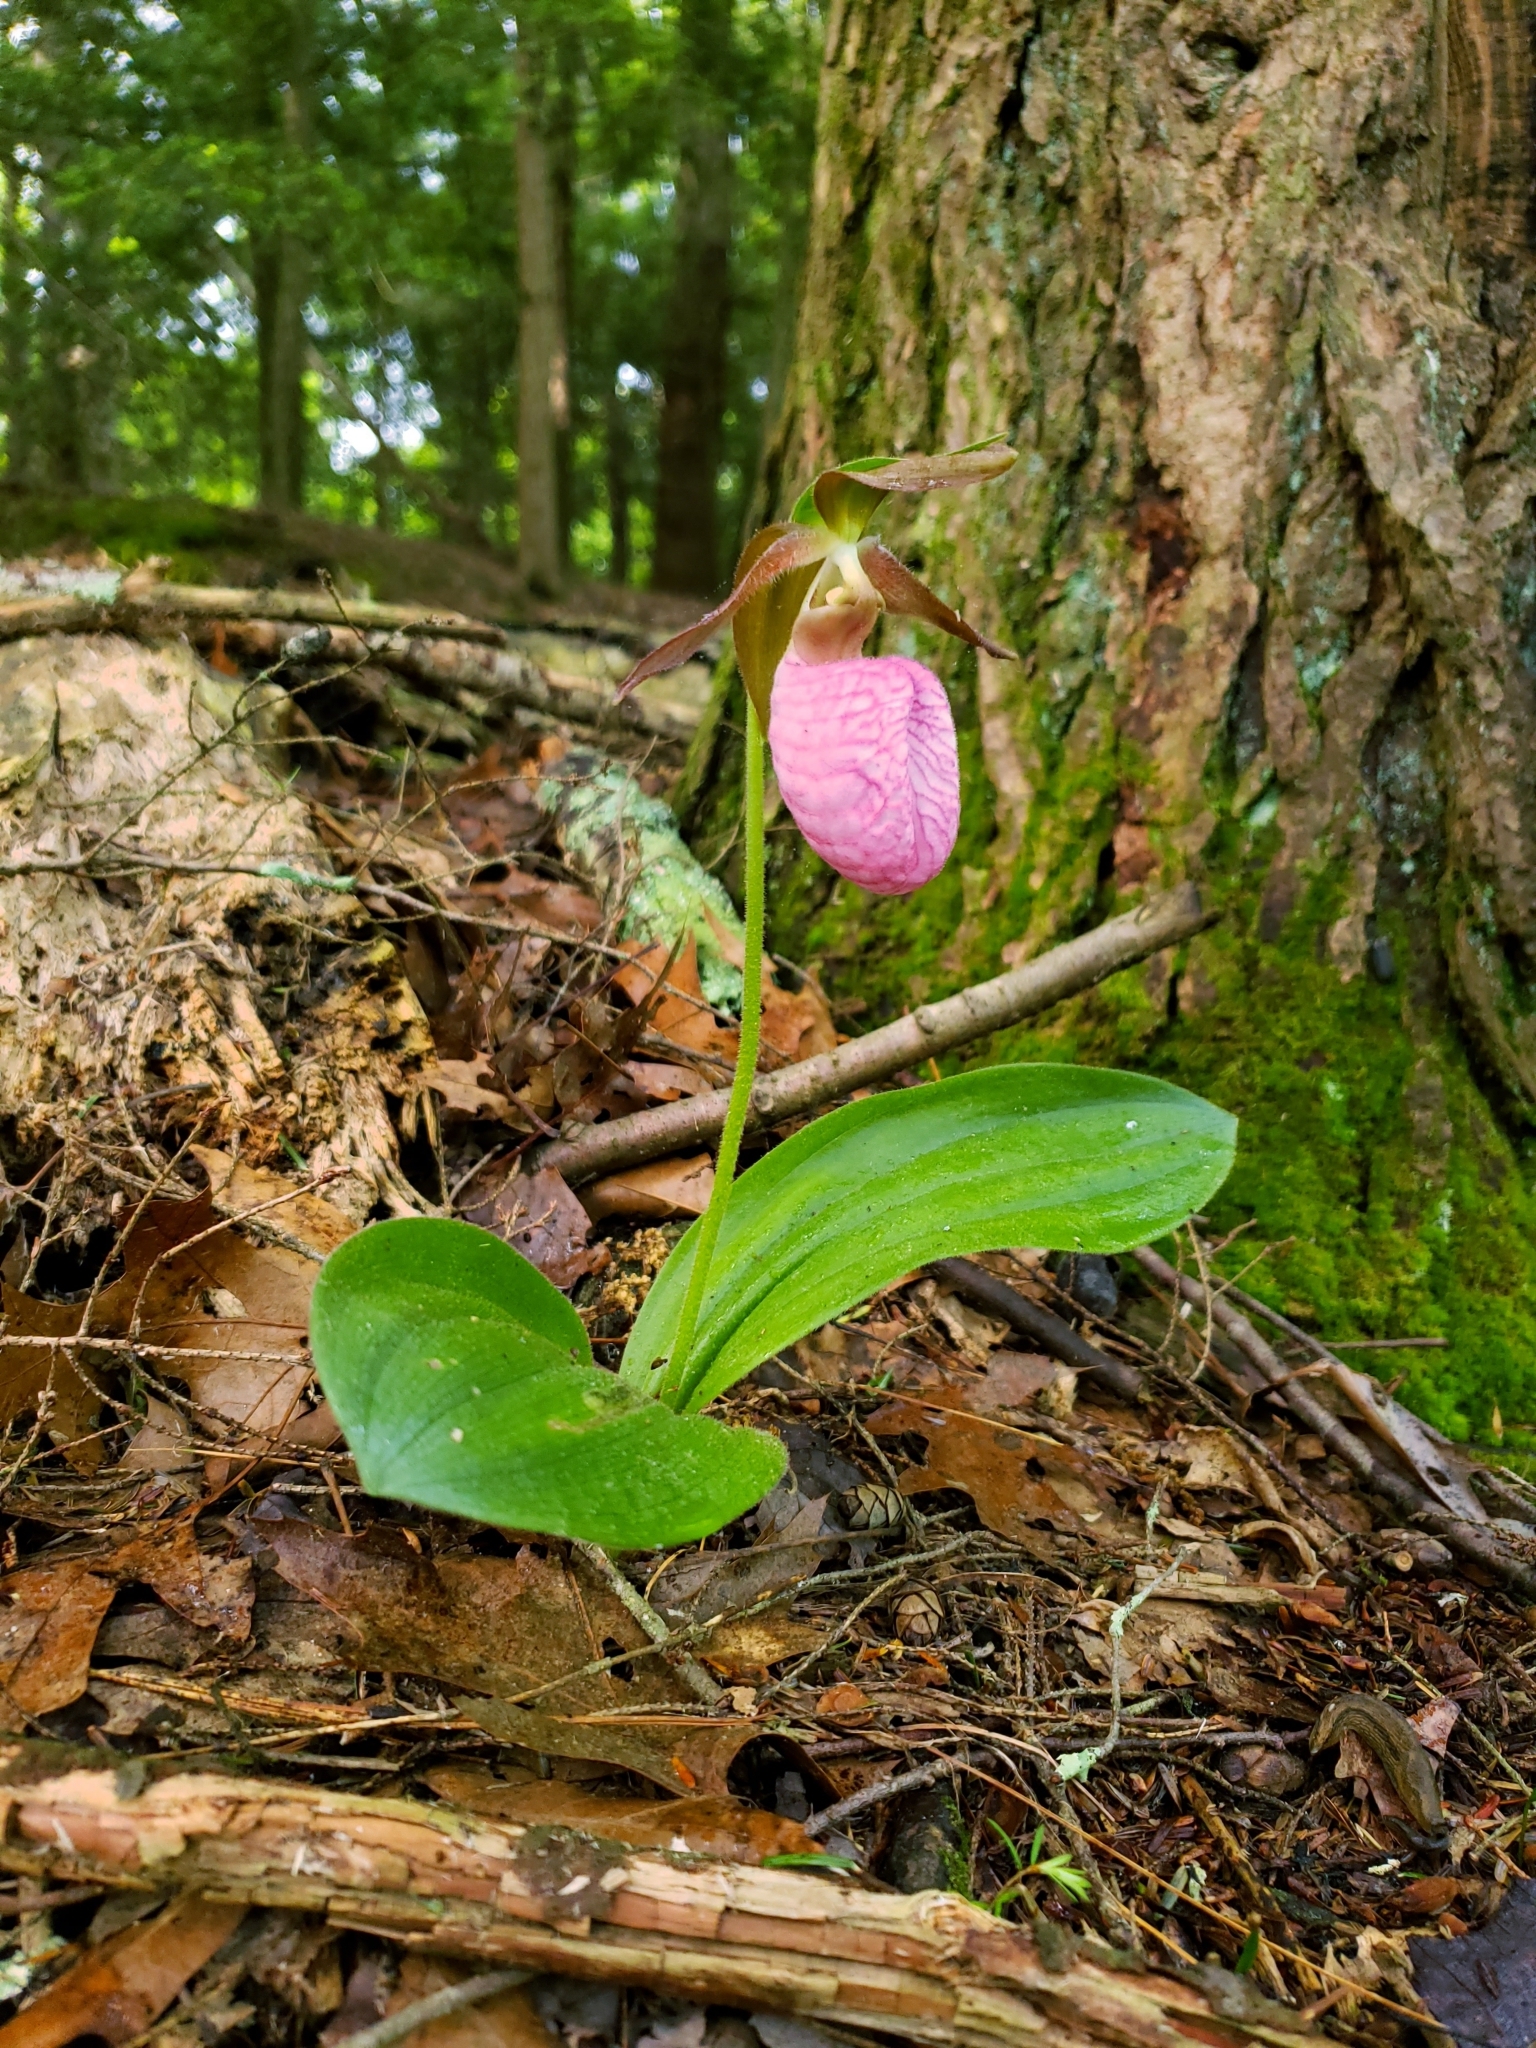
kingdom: Plantae
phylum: Tracheophyta
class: Liliopsida
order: Asparagales
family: Orchidaceae
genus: Cypripedium
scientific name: Cypripedium acaule
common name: Pink lady's-slipper
